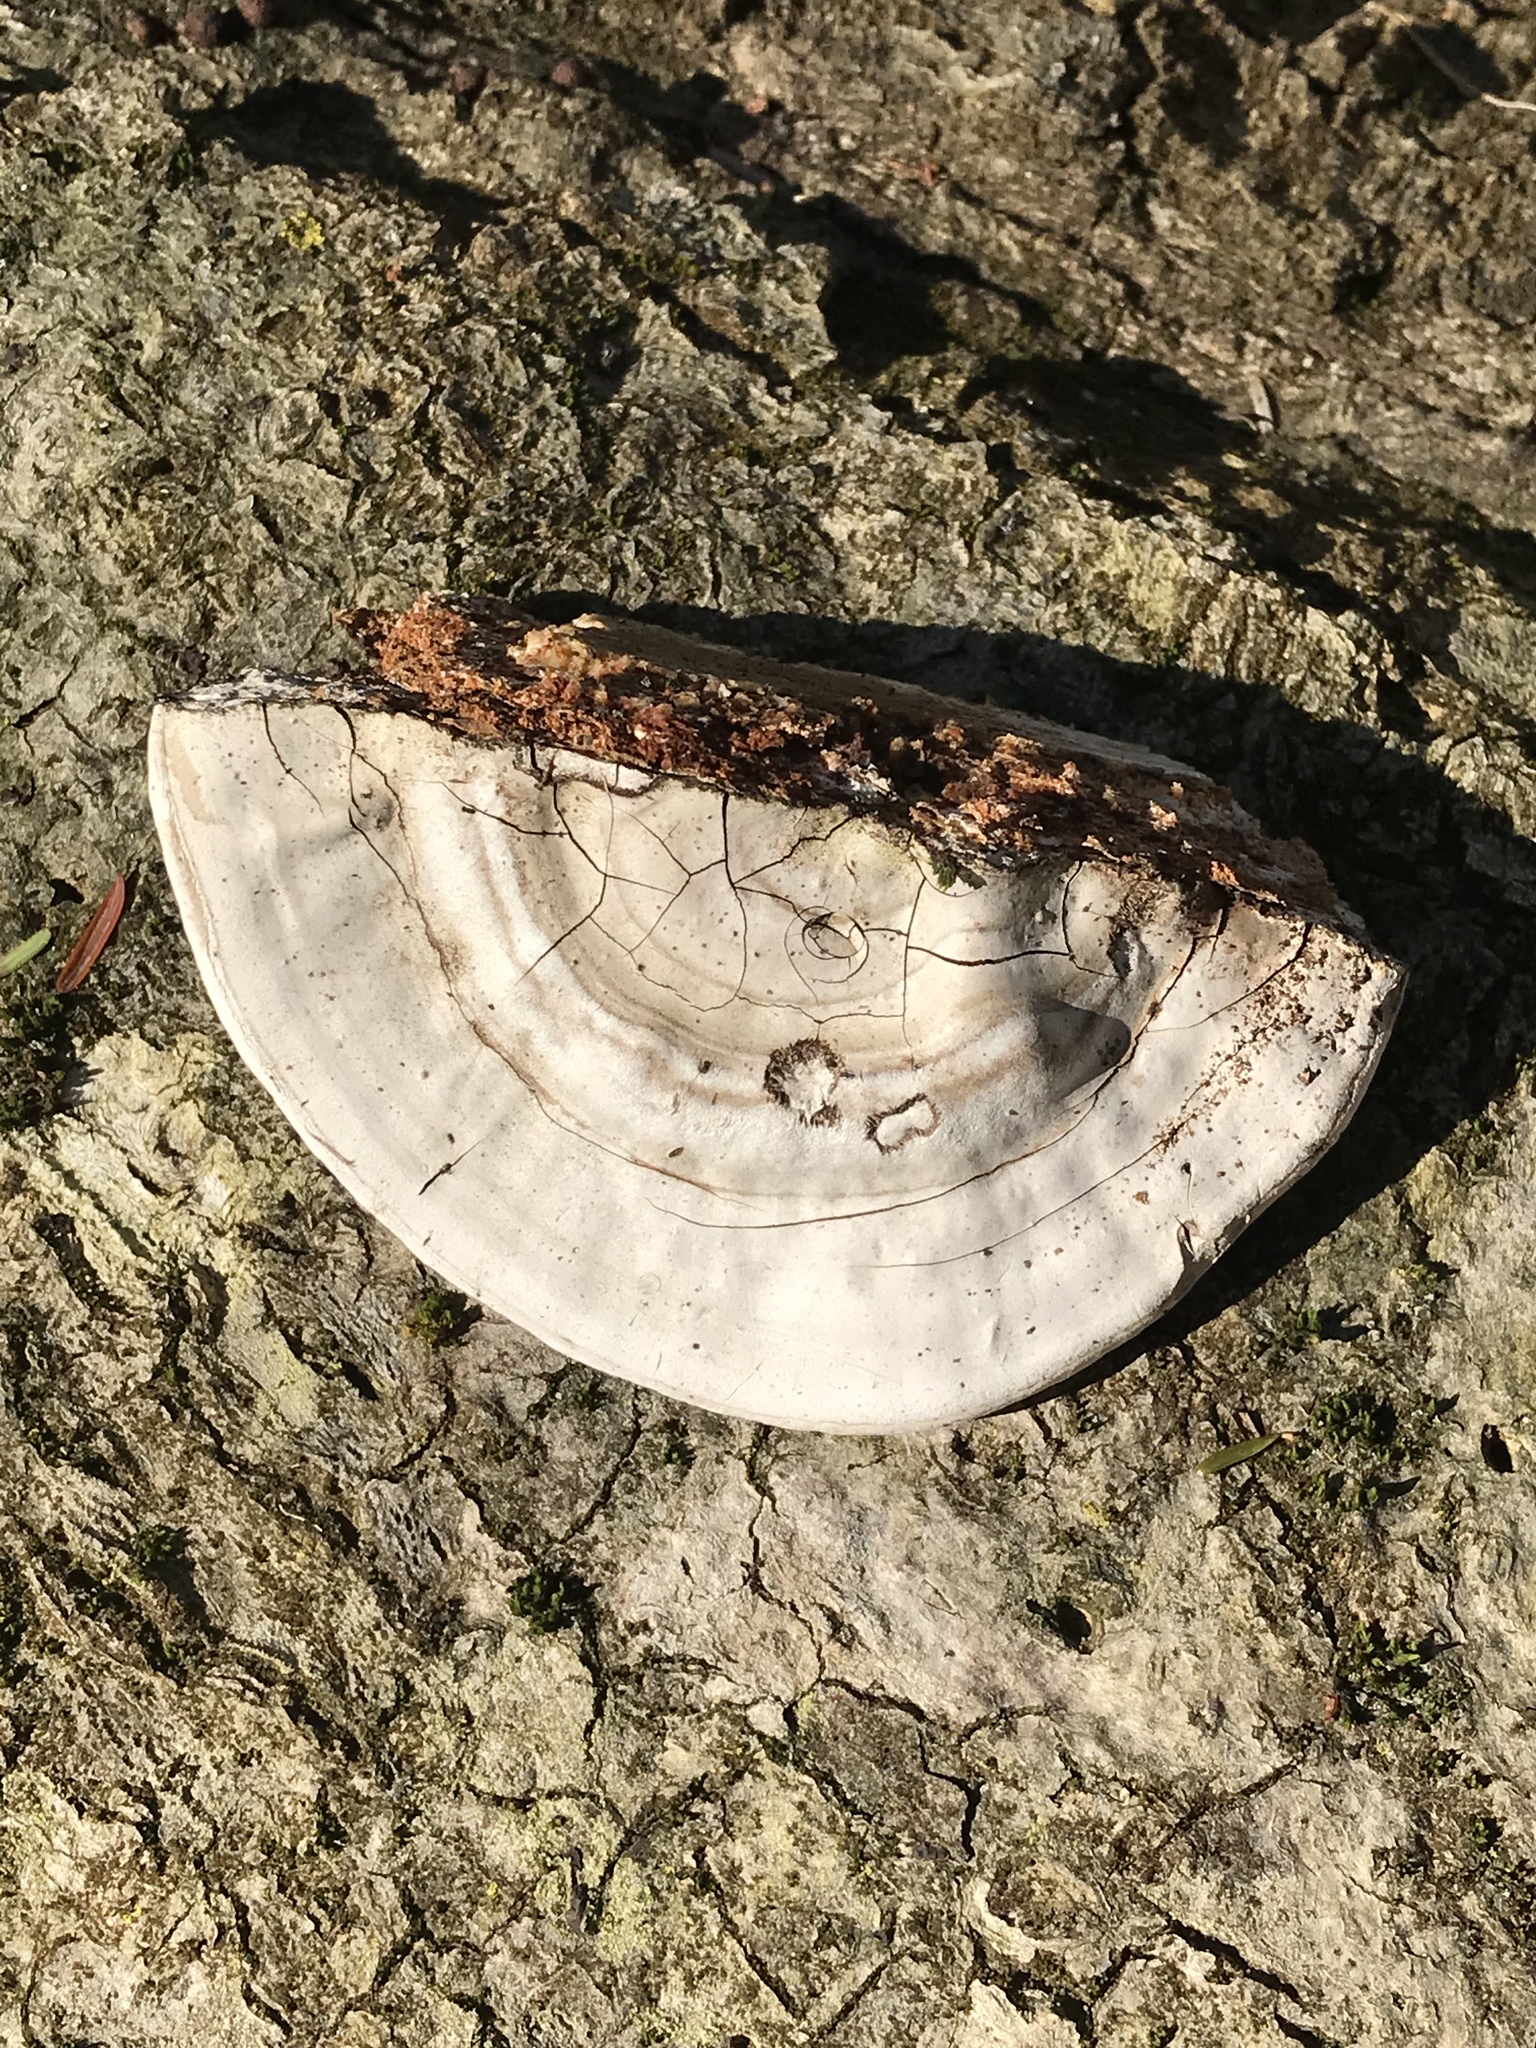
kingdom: Fungi
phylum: Basidiomycota
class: Agaricomycetes
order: Polyporales
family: Polyporaceae
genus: Ganoderma
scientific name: Ganoderma applanatum
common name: Artist's bracket
